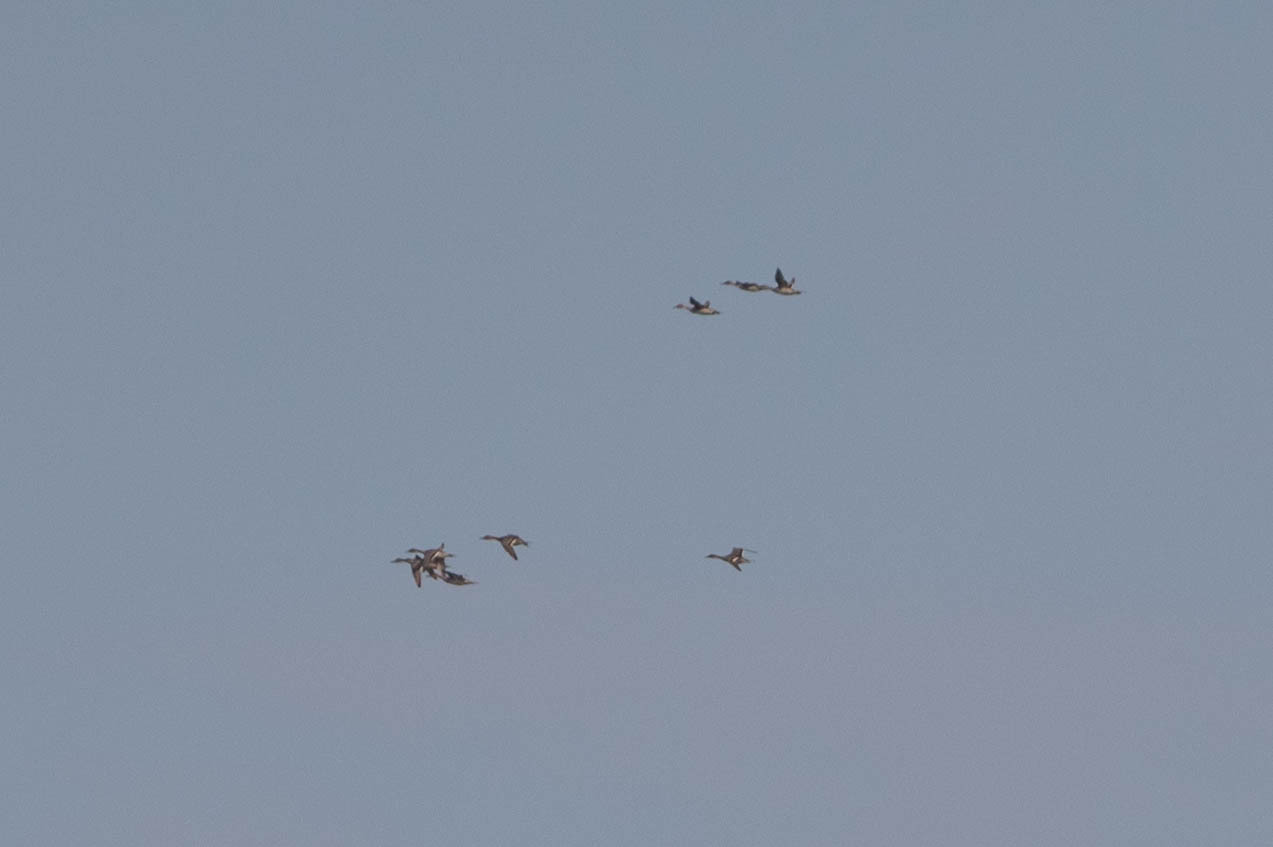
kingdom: Animalia
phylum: Chordata
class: Aves
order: Anseriformes
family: Anatidae
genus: Anas
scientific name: Anas acuta
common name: Northern pintail
